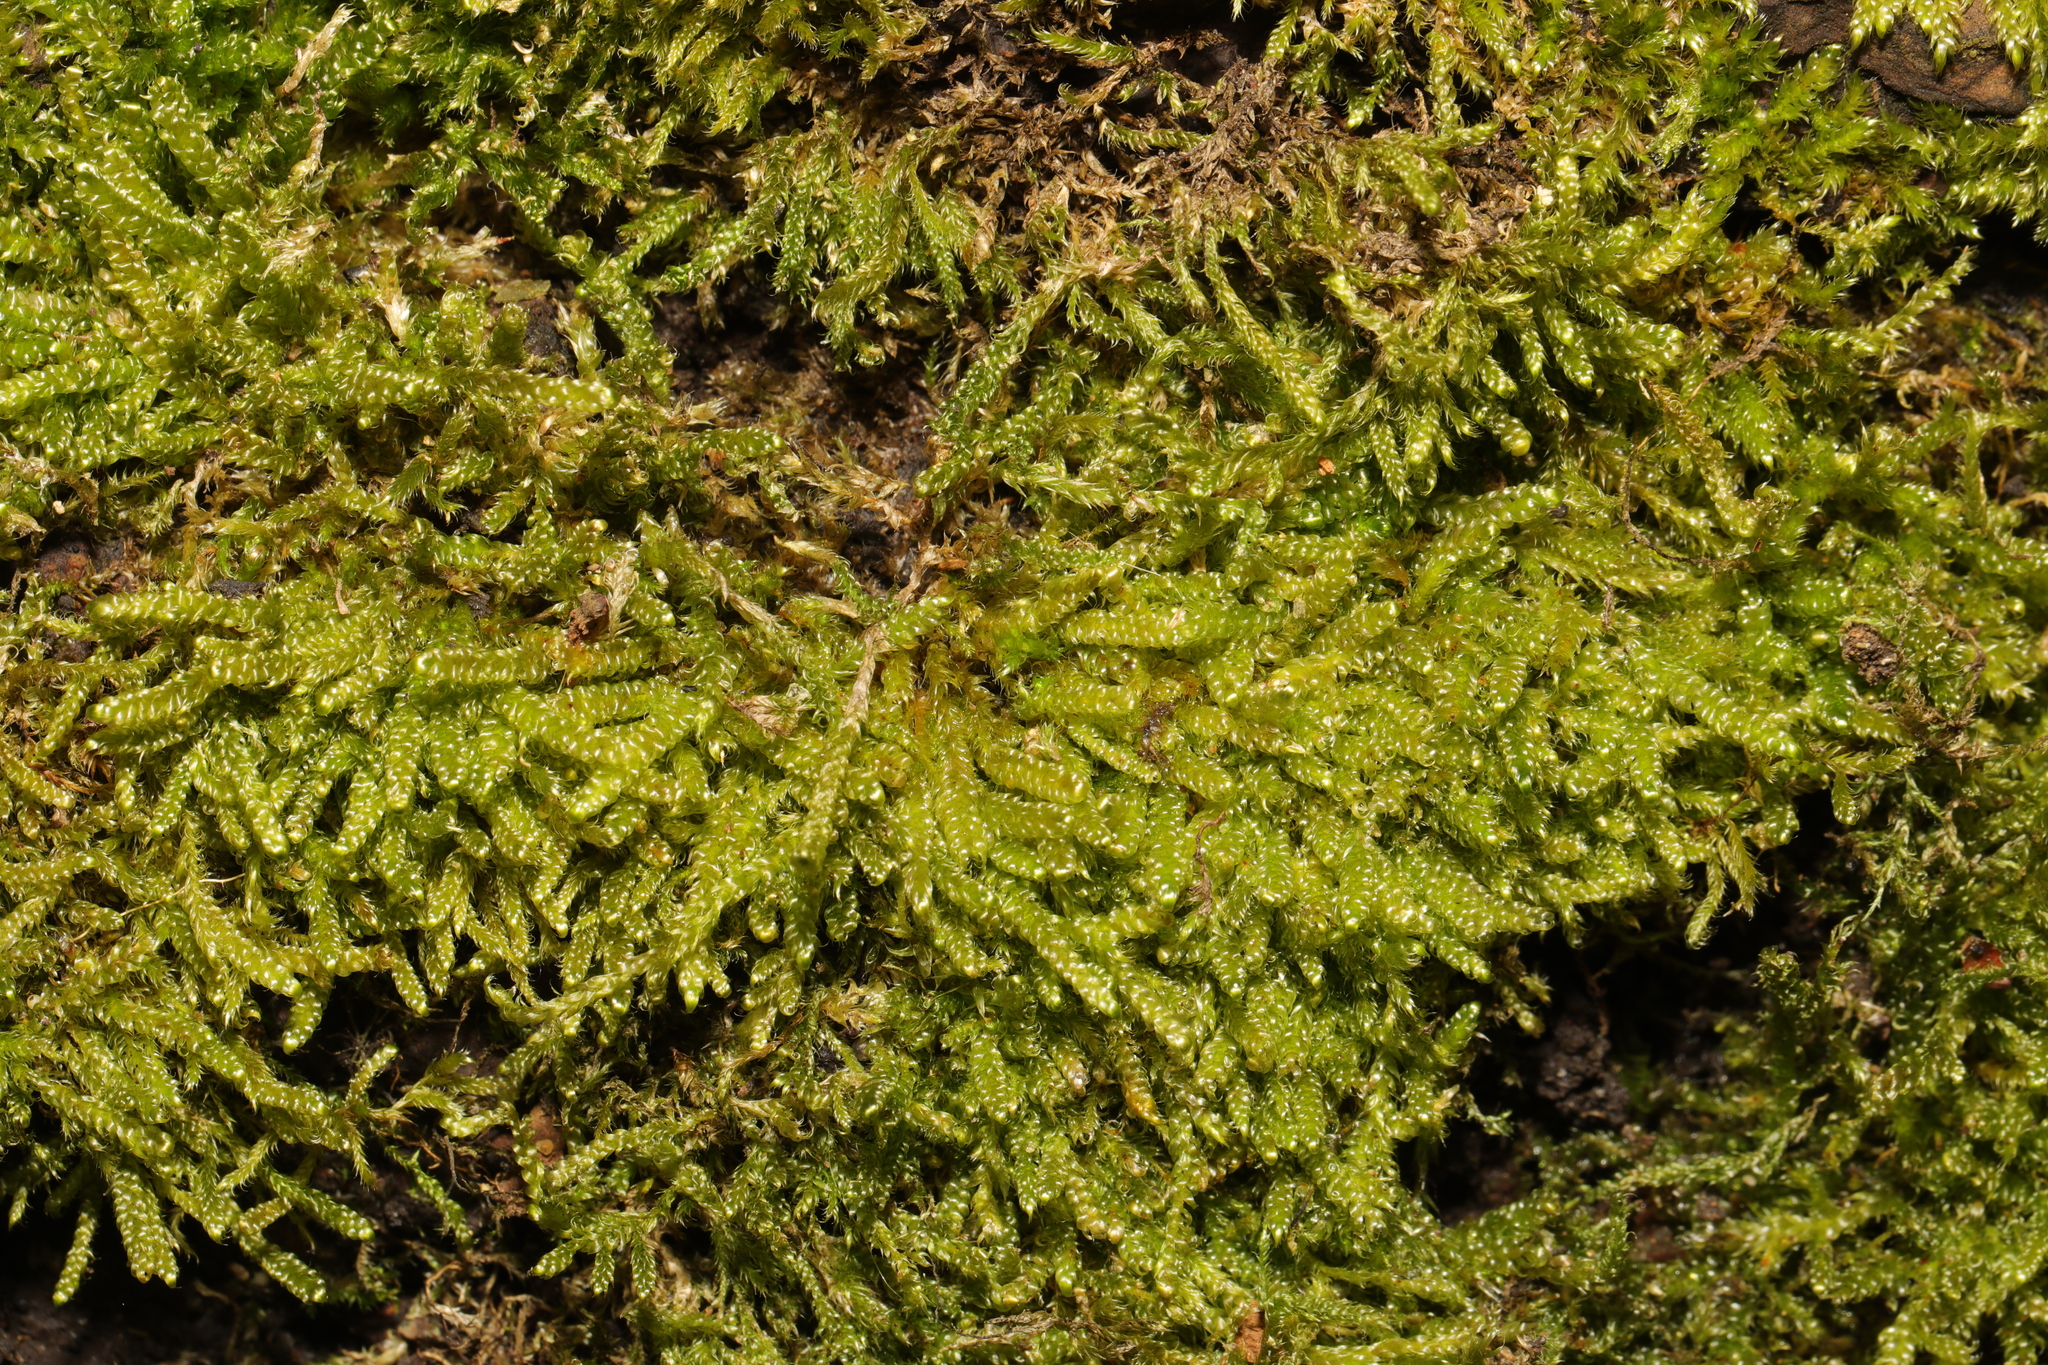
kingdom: Plantae
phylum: Bryophyta
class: Bryopsida
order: Hypnales
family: Hypnaceae
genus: Hypnum
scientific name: Hypnum cupressiforme
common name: Cypress-leaved plait-moss
